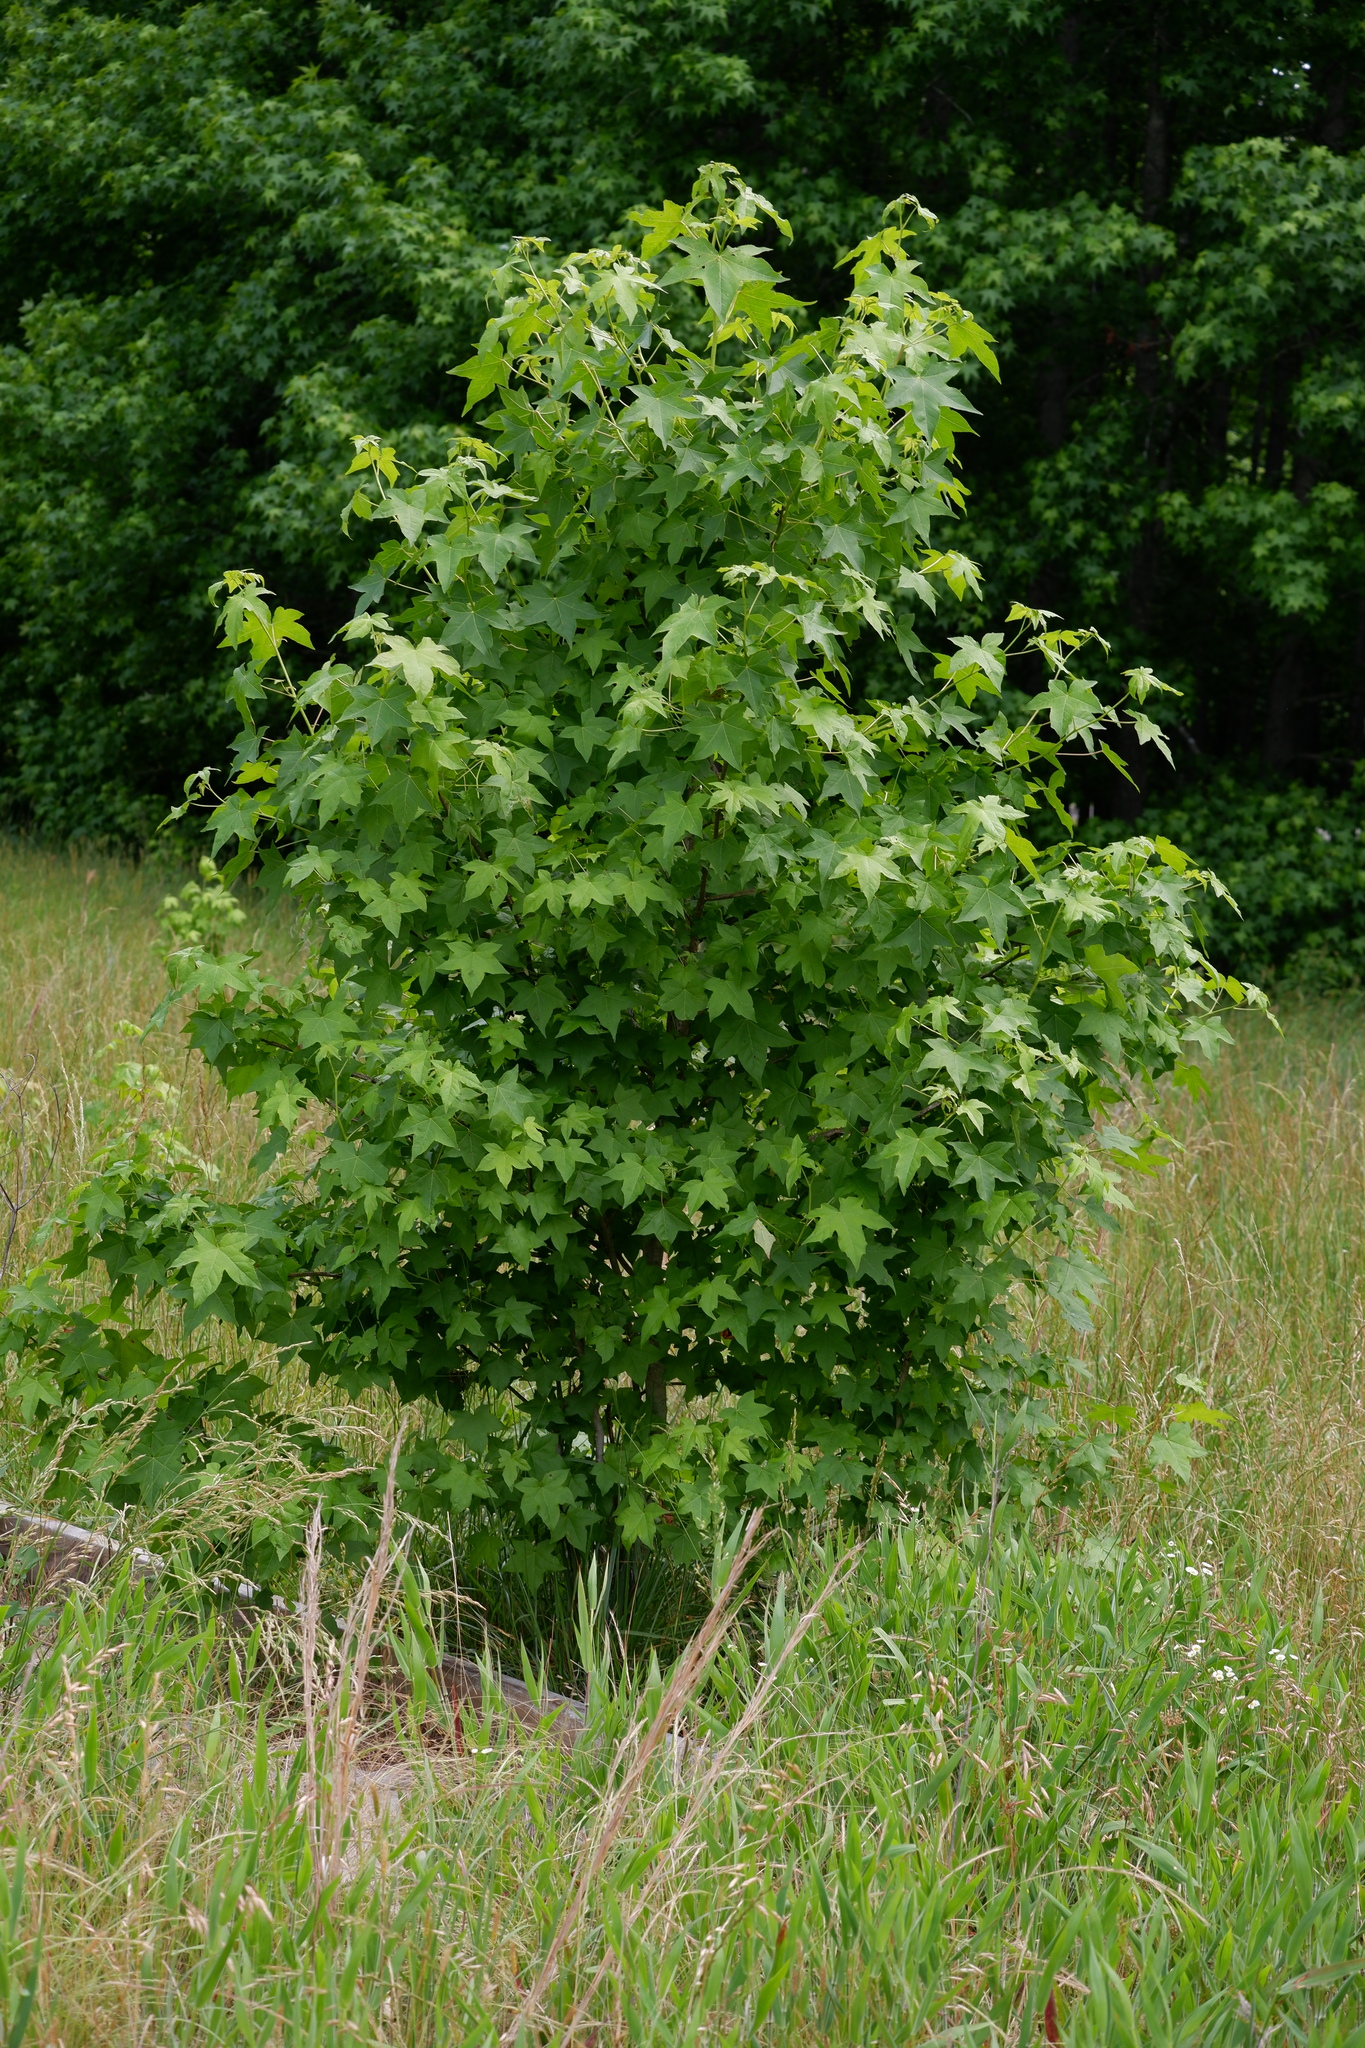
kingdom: Plantae
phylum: Tracheophyta
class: Magnoliopsida
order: Saxifragales
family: Altingiaceae
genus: Liquidambar
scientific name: Liquidambar styraciflua
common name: Sweet gum
